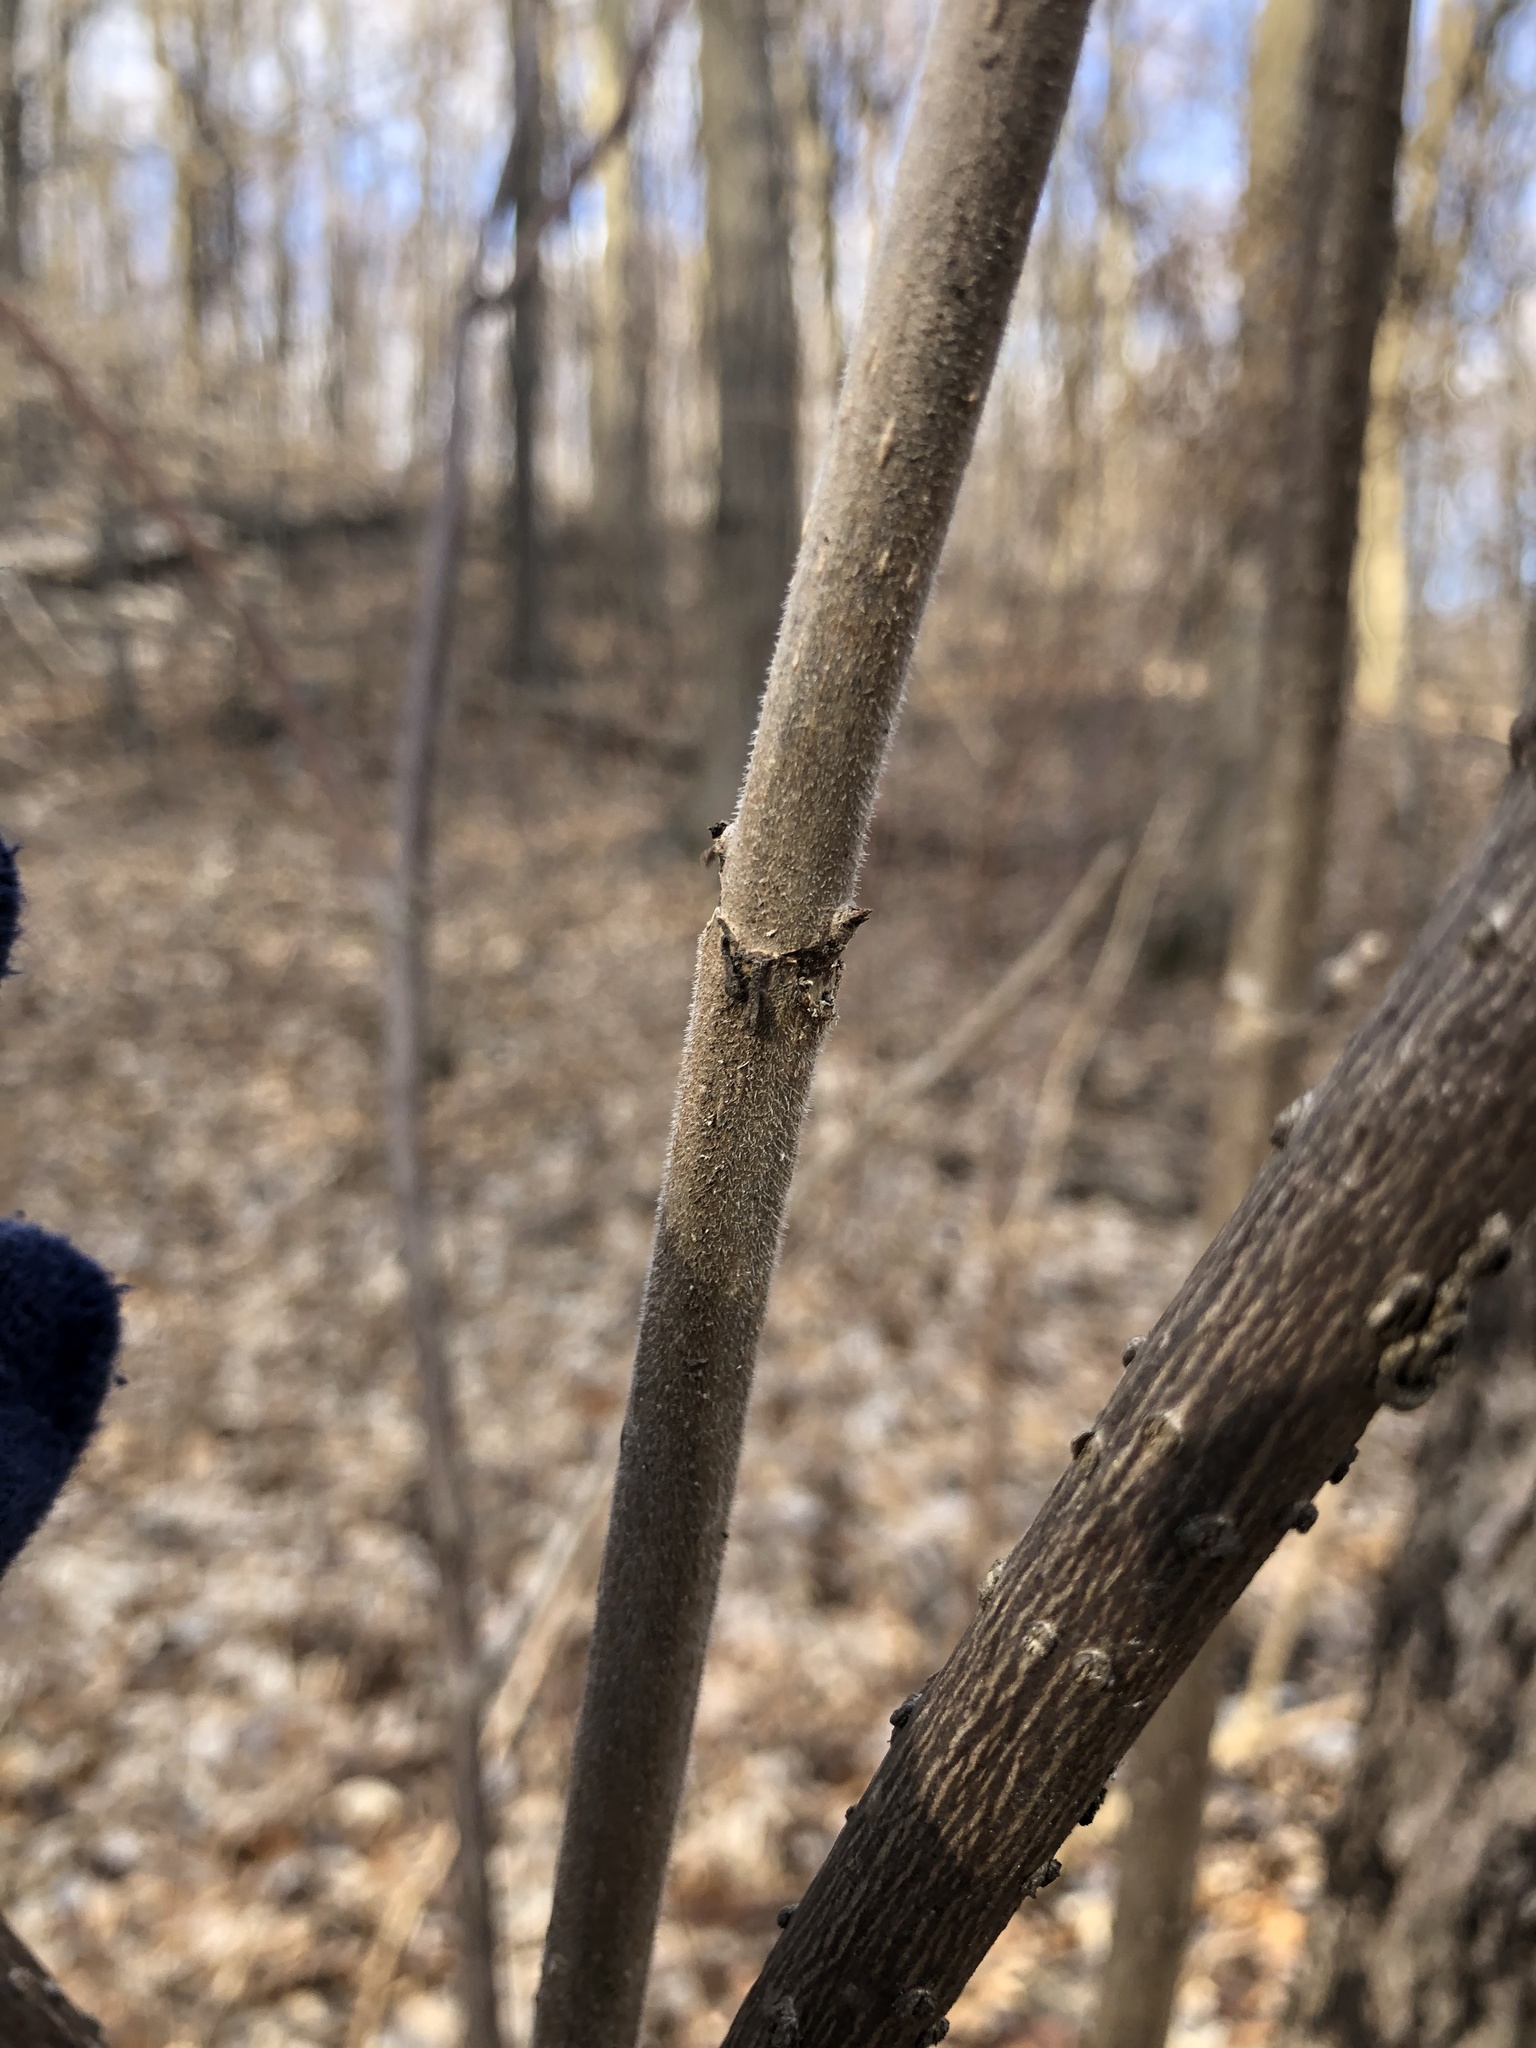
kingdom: Plantae
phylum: Tracheophyta
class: Magnoliopsida
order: Dipsacales
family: Viburnaceae
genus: Sambucus
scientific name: Sambucus racemosa
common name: Red-berried elder
